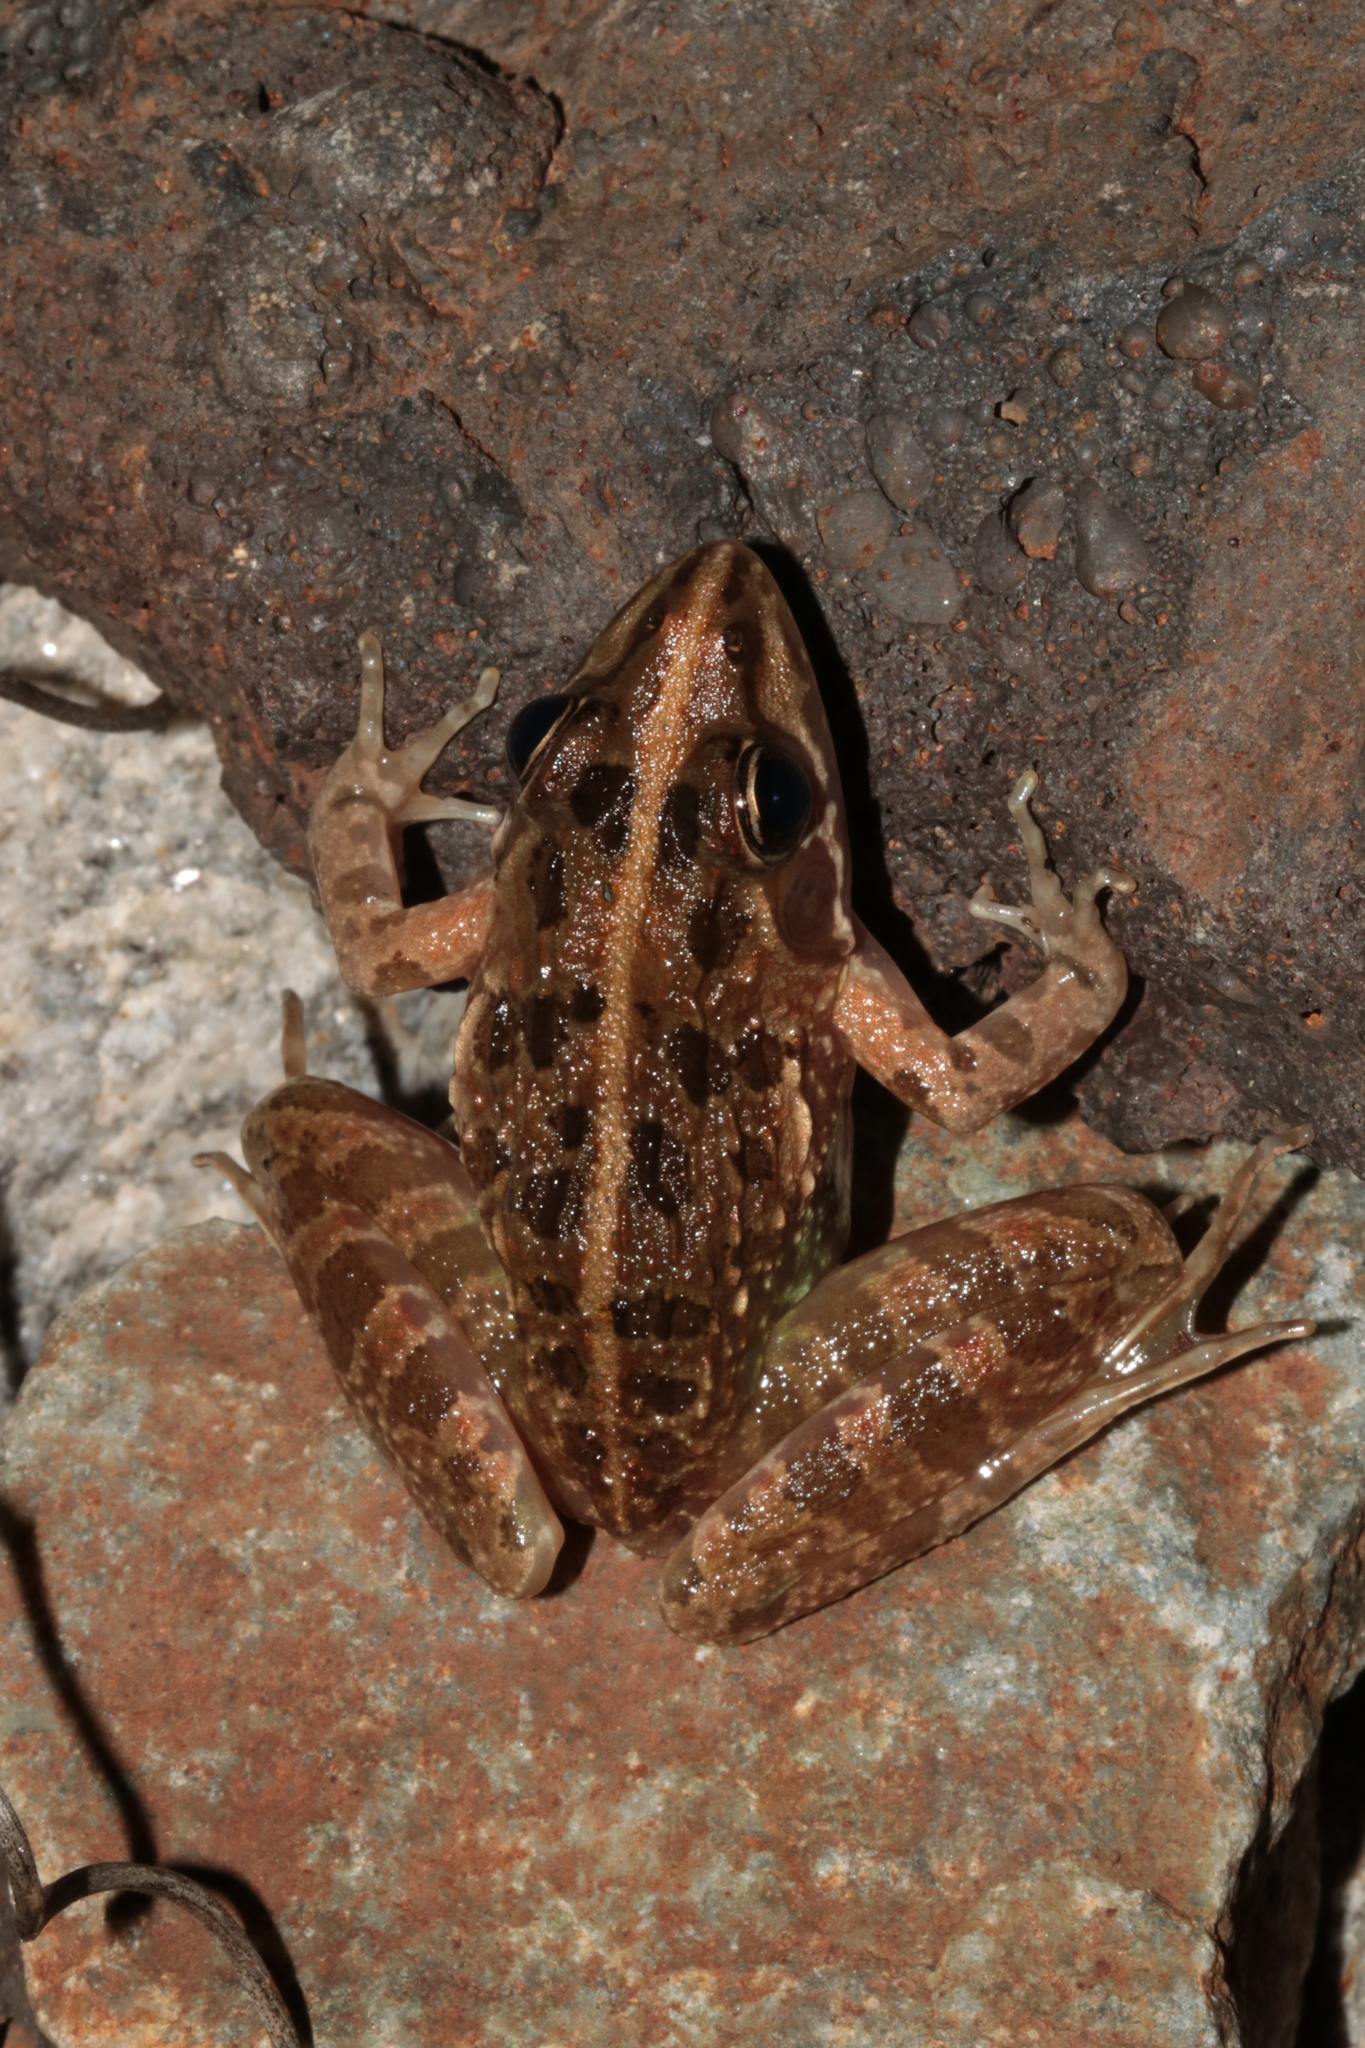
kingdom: Animalia
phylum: Chordata
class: Amphibia
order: Anura
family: Pyxicephalidae
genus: Amietia
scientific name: Amietia delalandii
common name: Delalande's river frog
